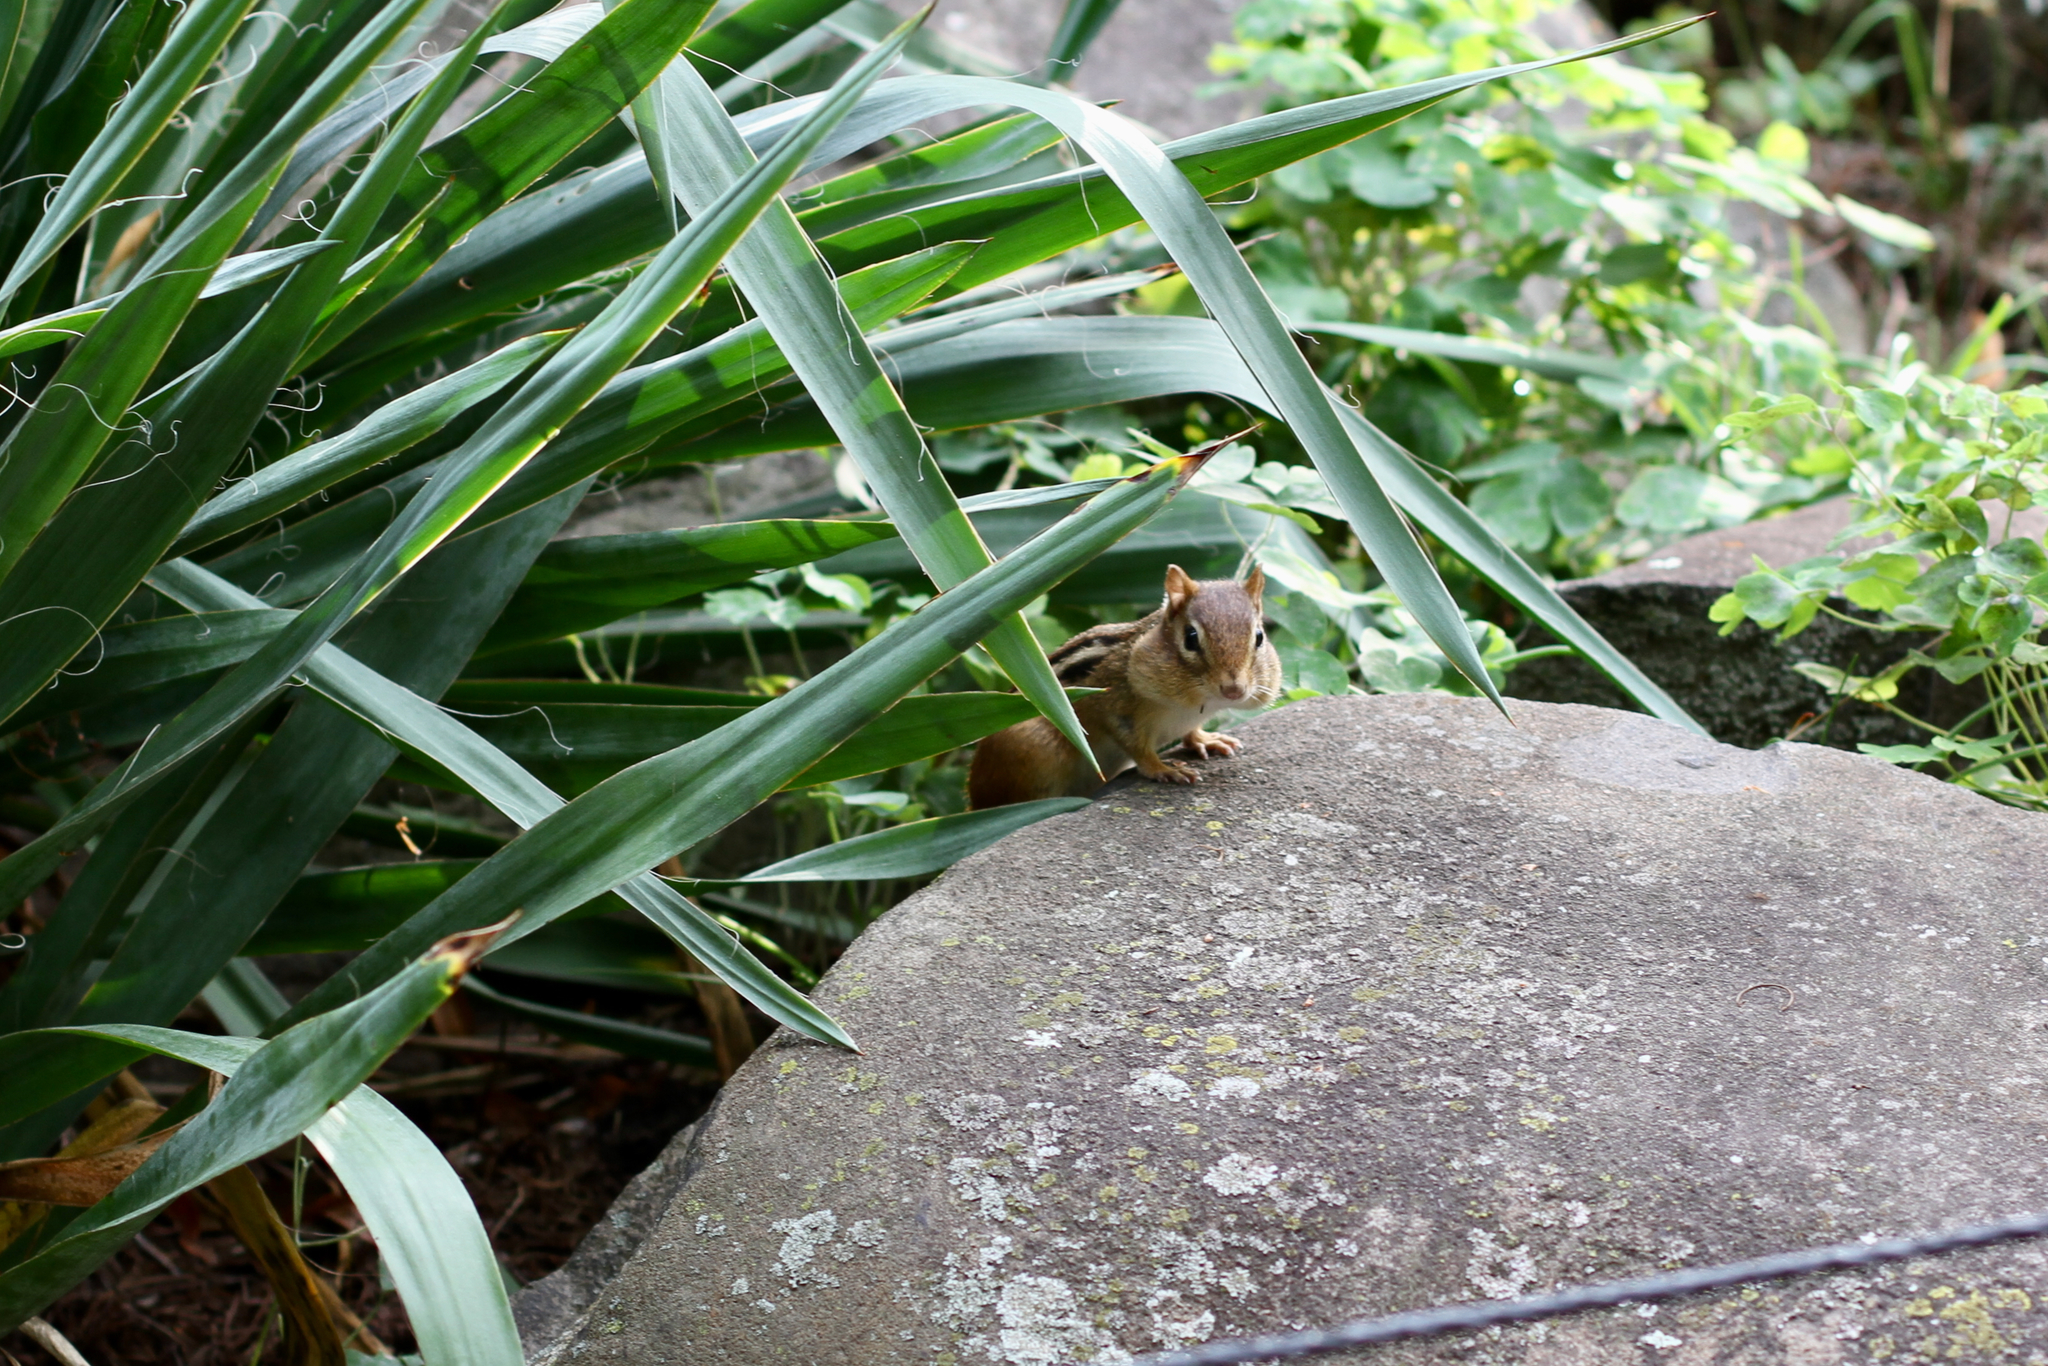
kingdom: Animalia
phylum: Chordata
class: Mammalia
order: Rodentia
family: Sciuridae
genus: Tamias
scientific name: Tamias striatus
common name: Eastern chipmunk
